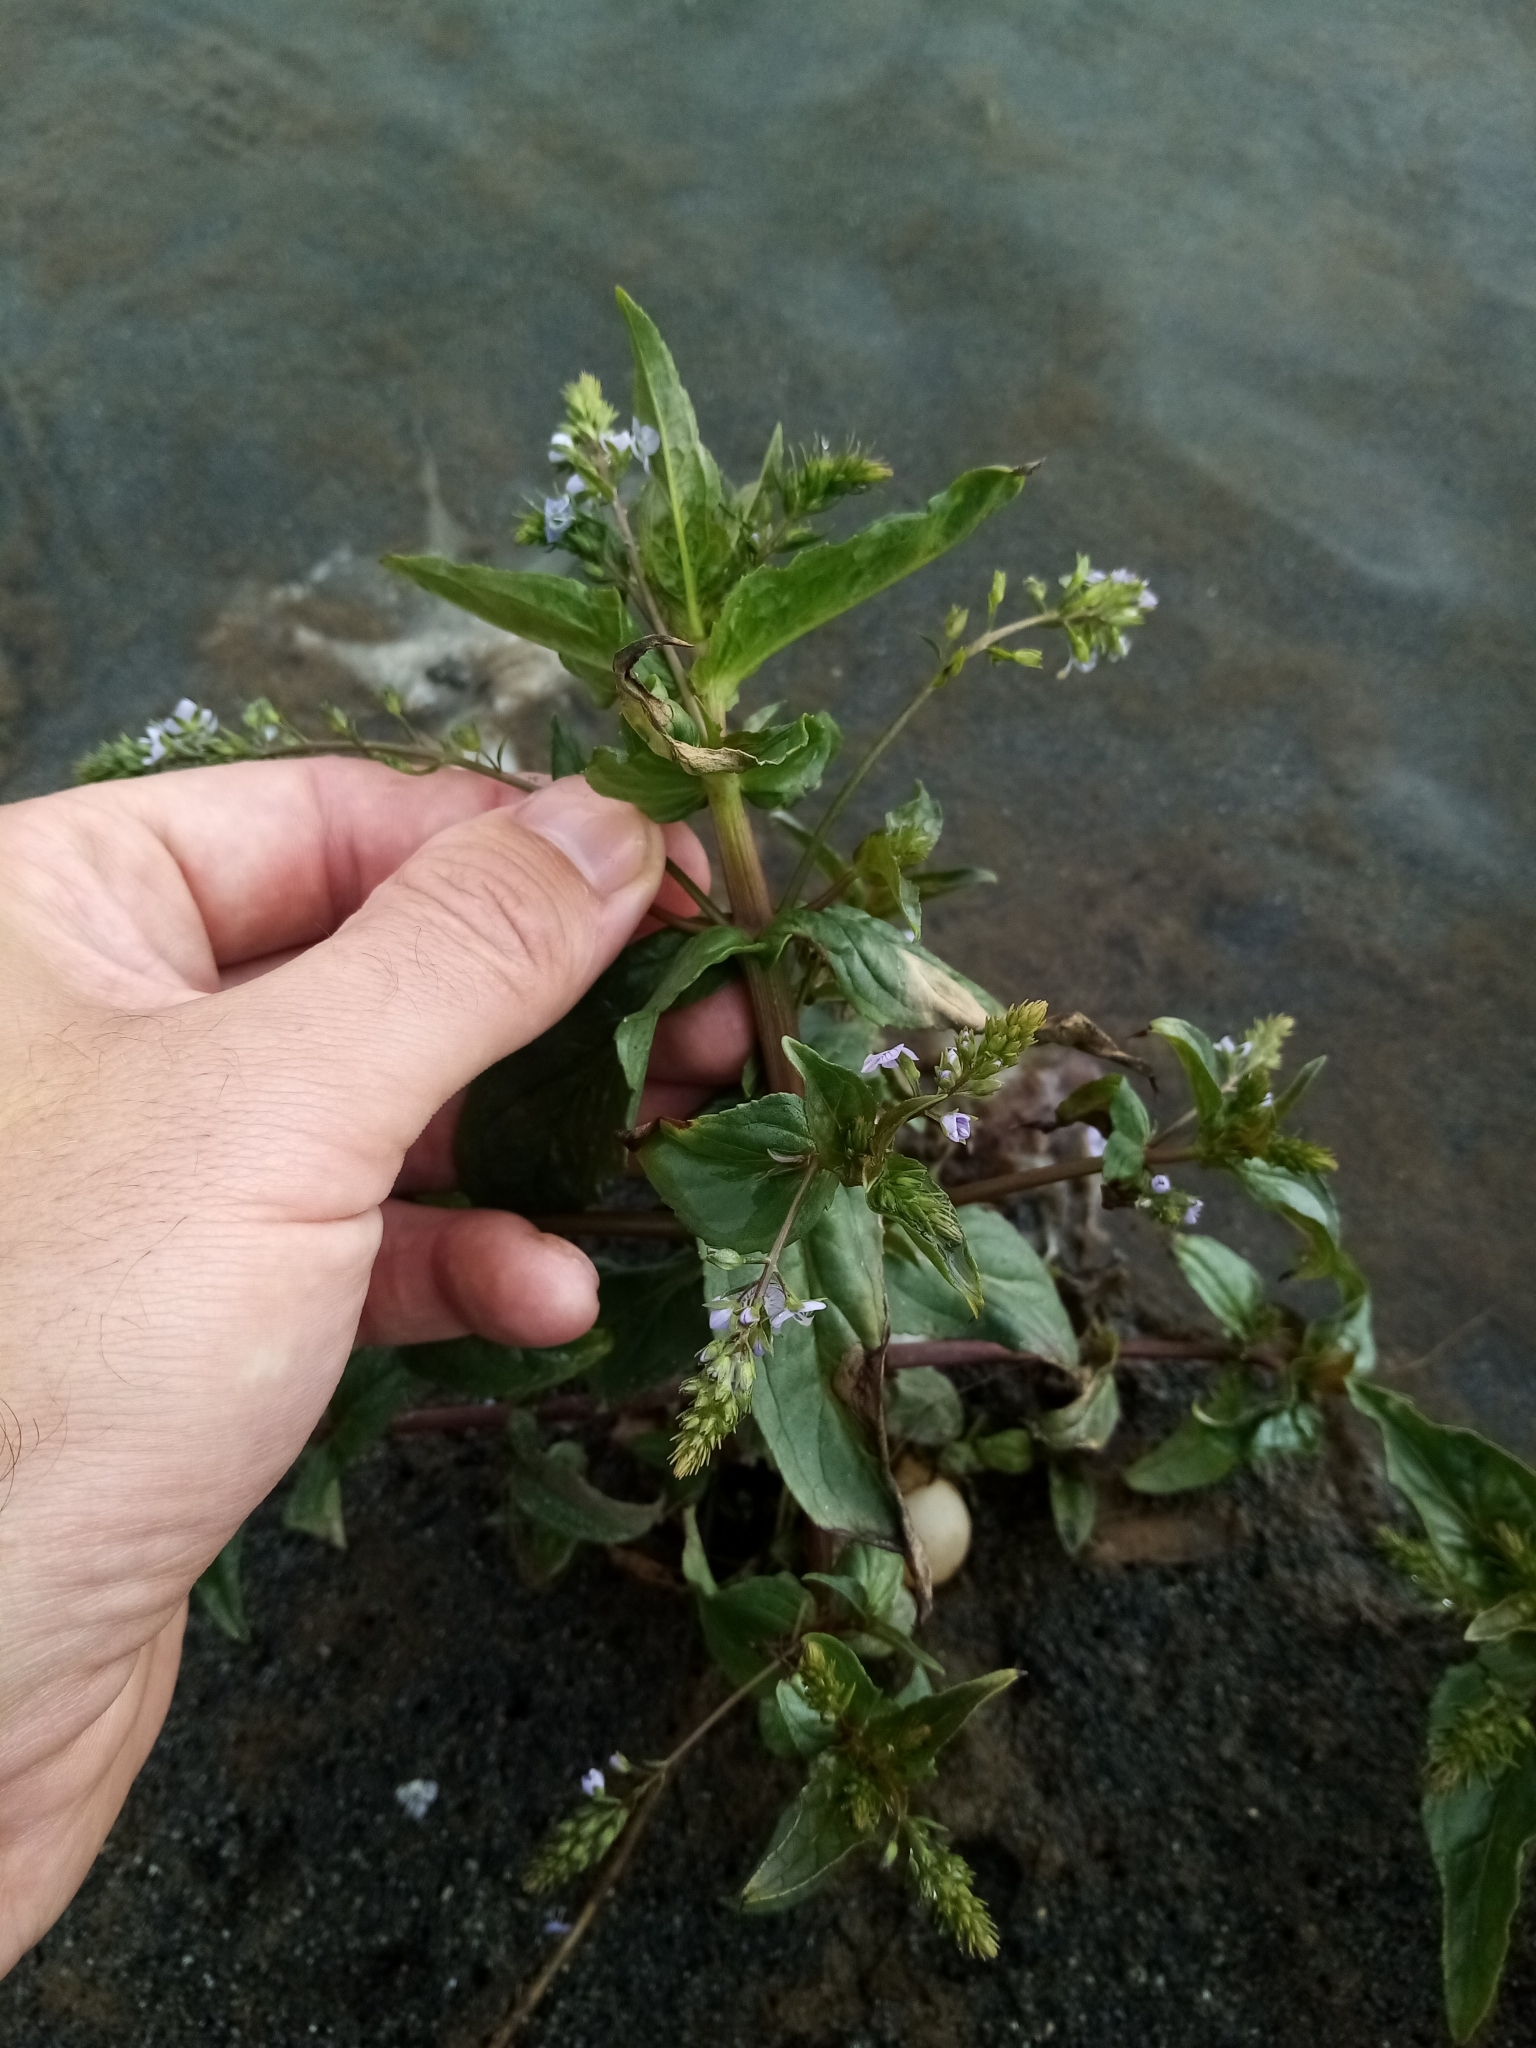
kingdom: Plantae
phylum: Tracheophyta
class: Magnoliopsida
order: Lamiales
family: Plantaginaceae
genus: Veronica
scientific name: Veronica anagallis-aquatica
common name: Water speedwell
